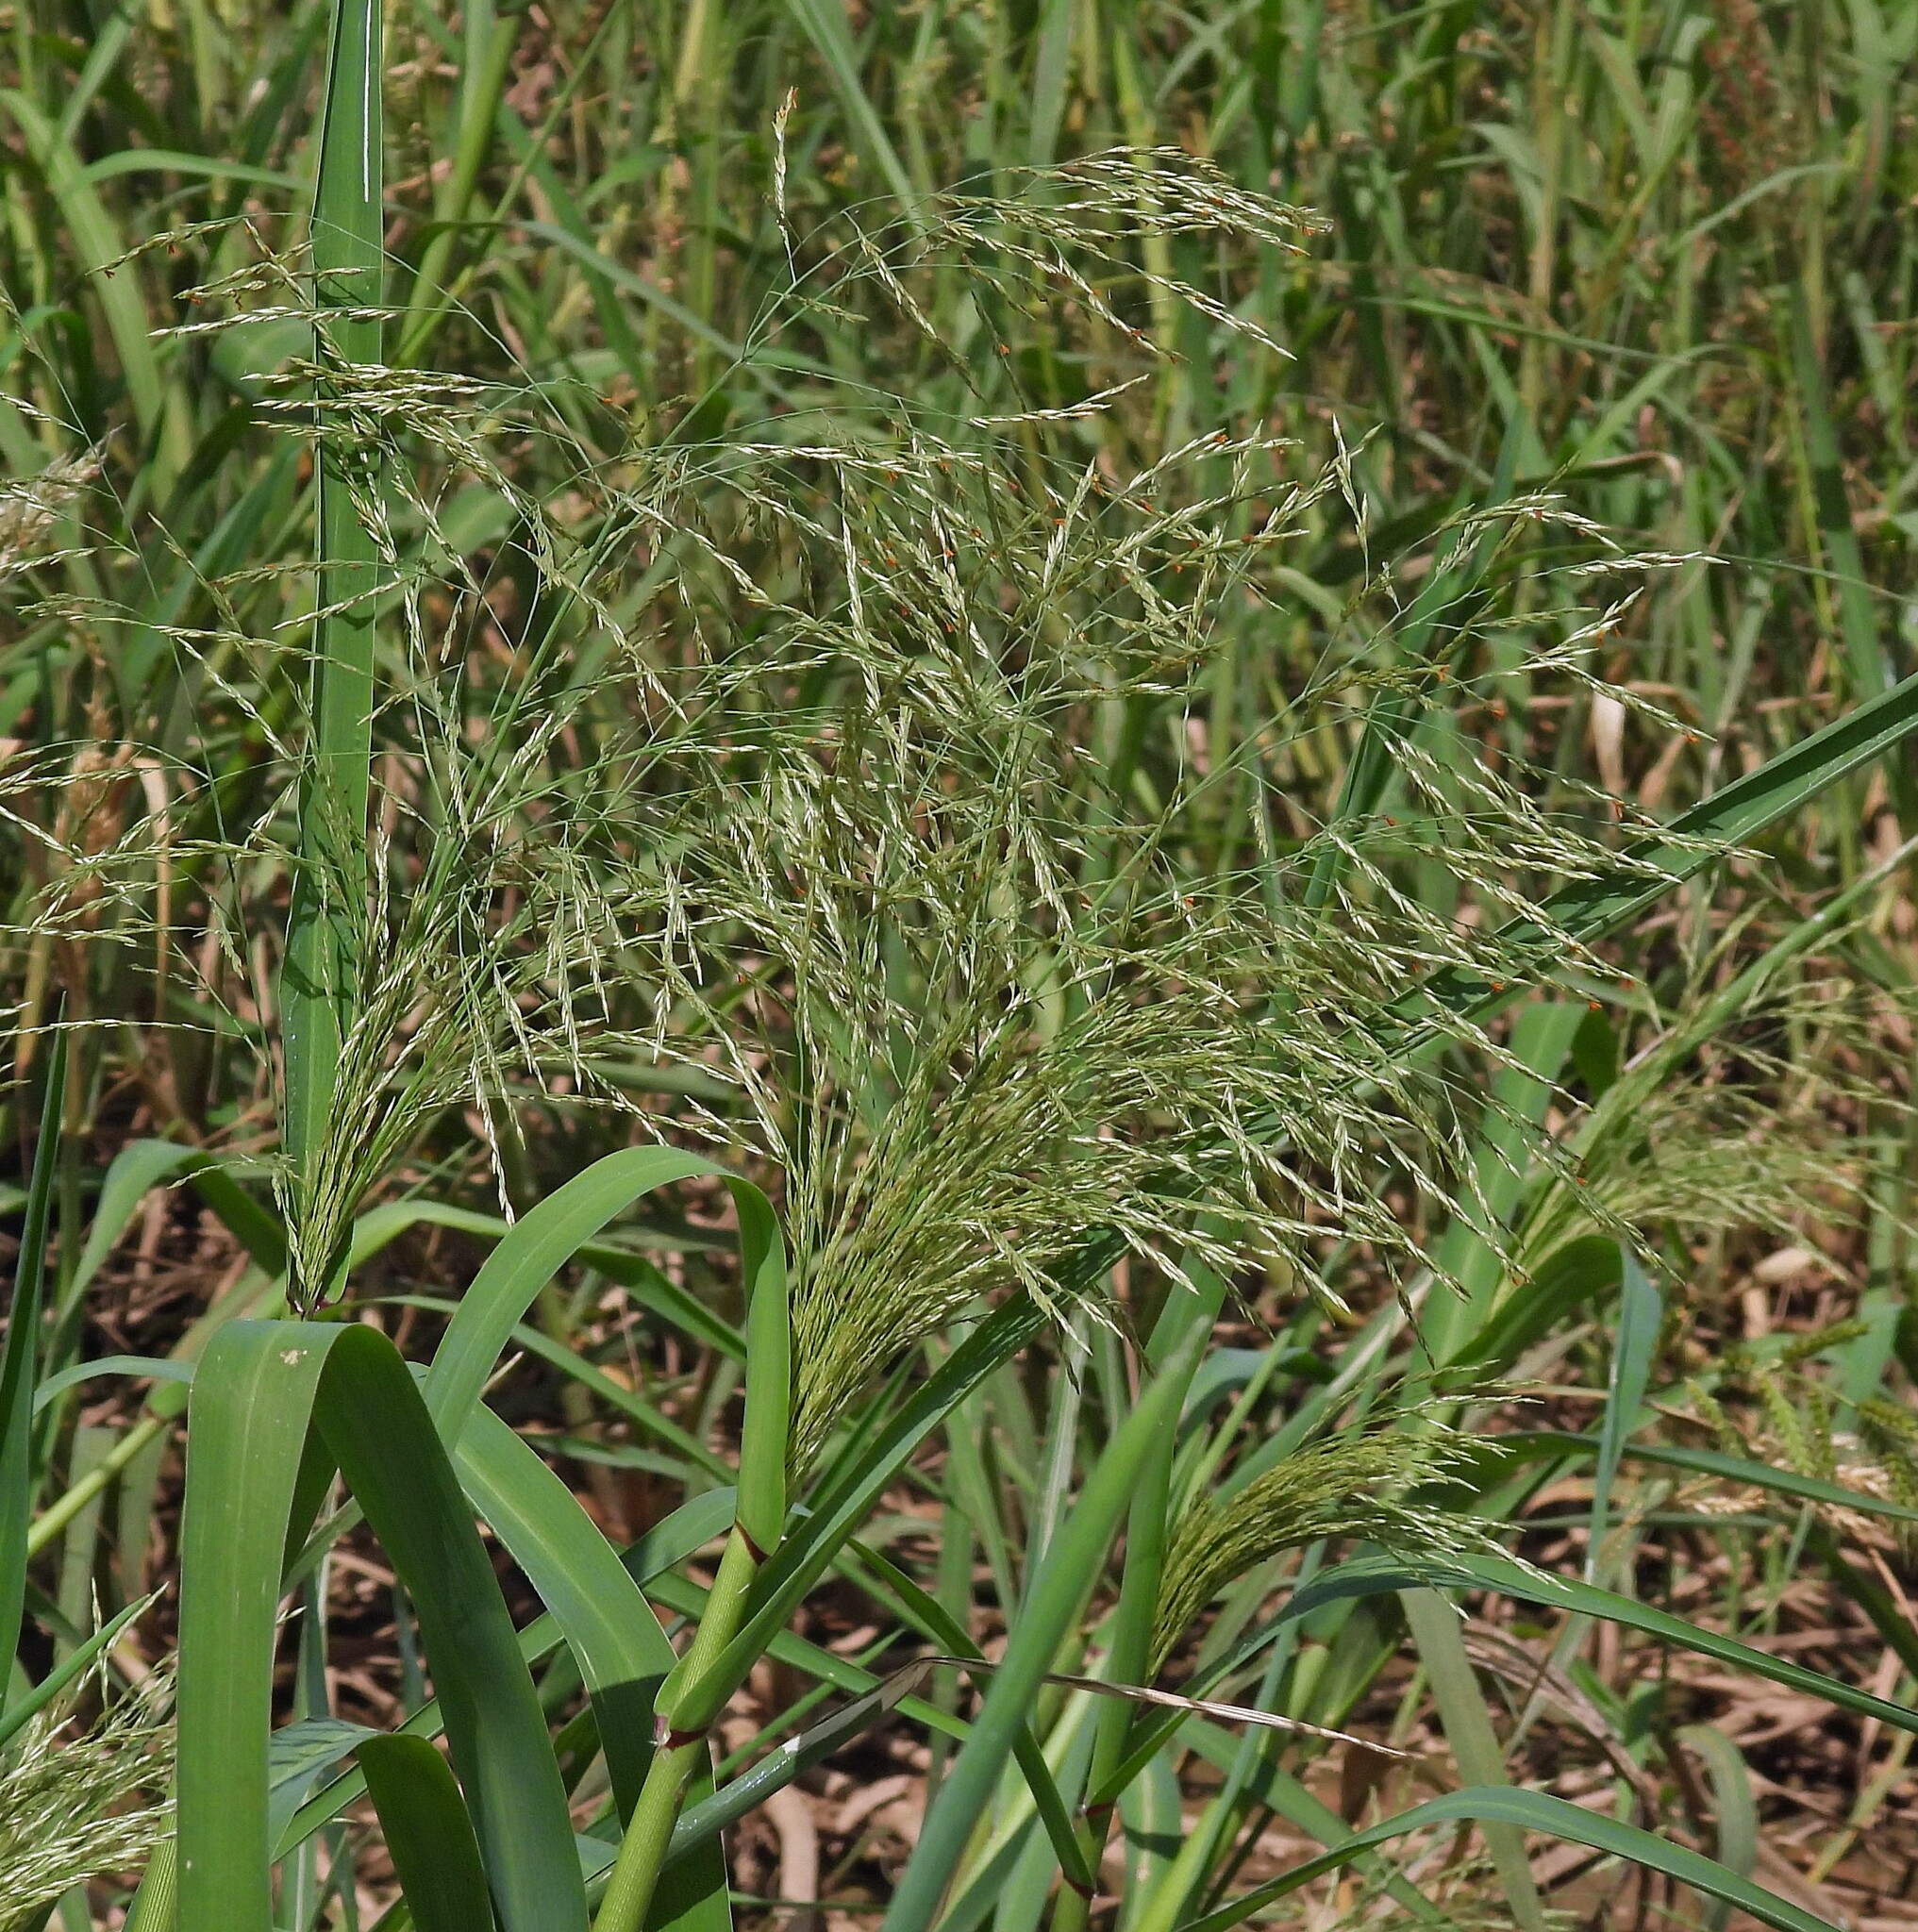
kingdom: Plantae
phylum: Tracheophyta
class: Liliopsida
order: Poales
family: Poaceae
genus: Louisiella
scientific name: Louisiella elephantipes
